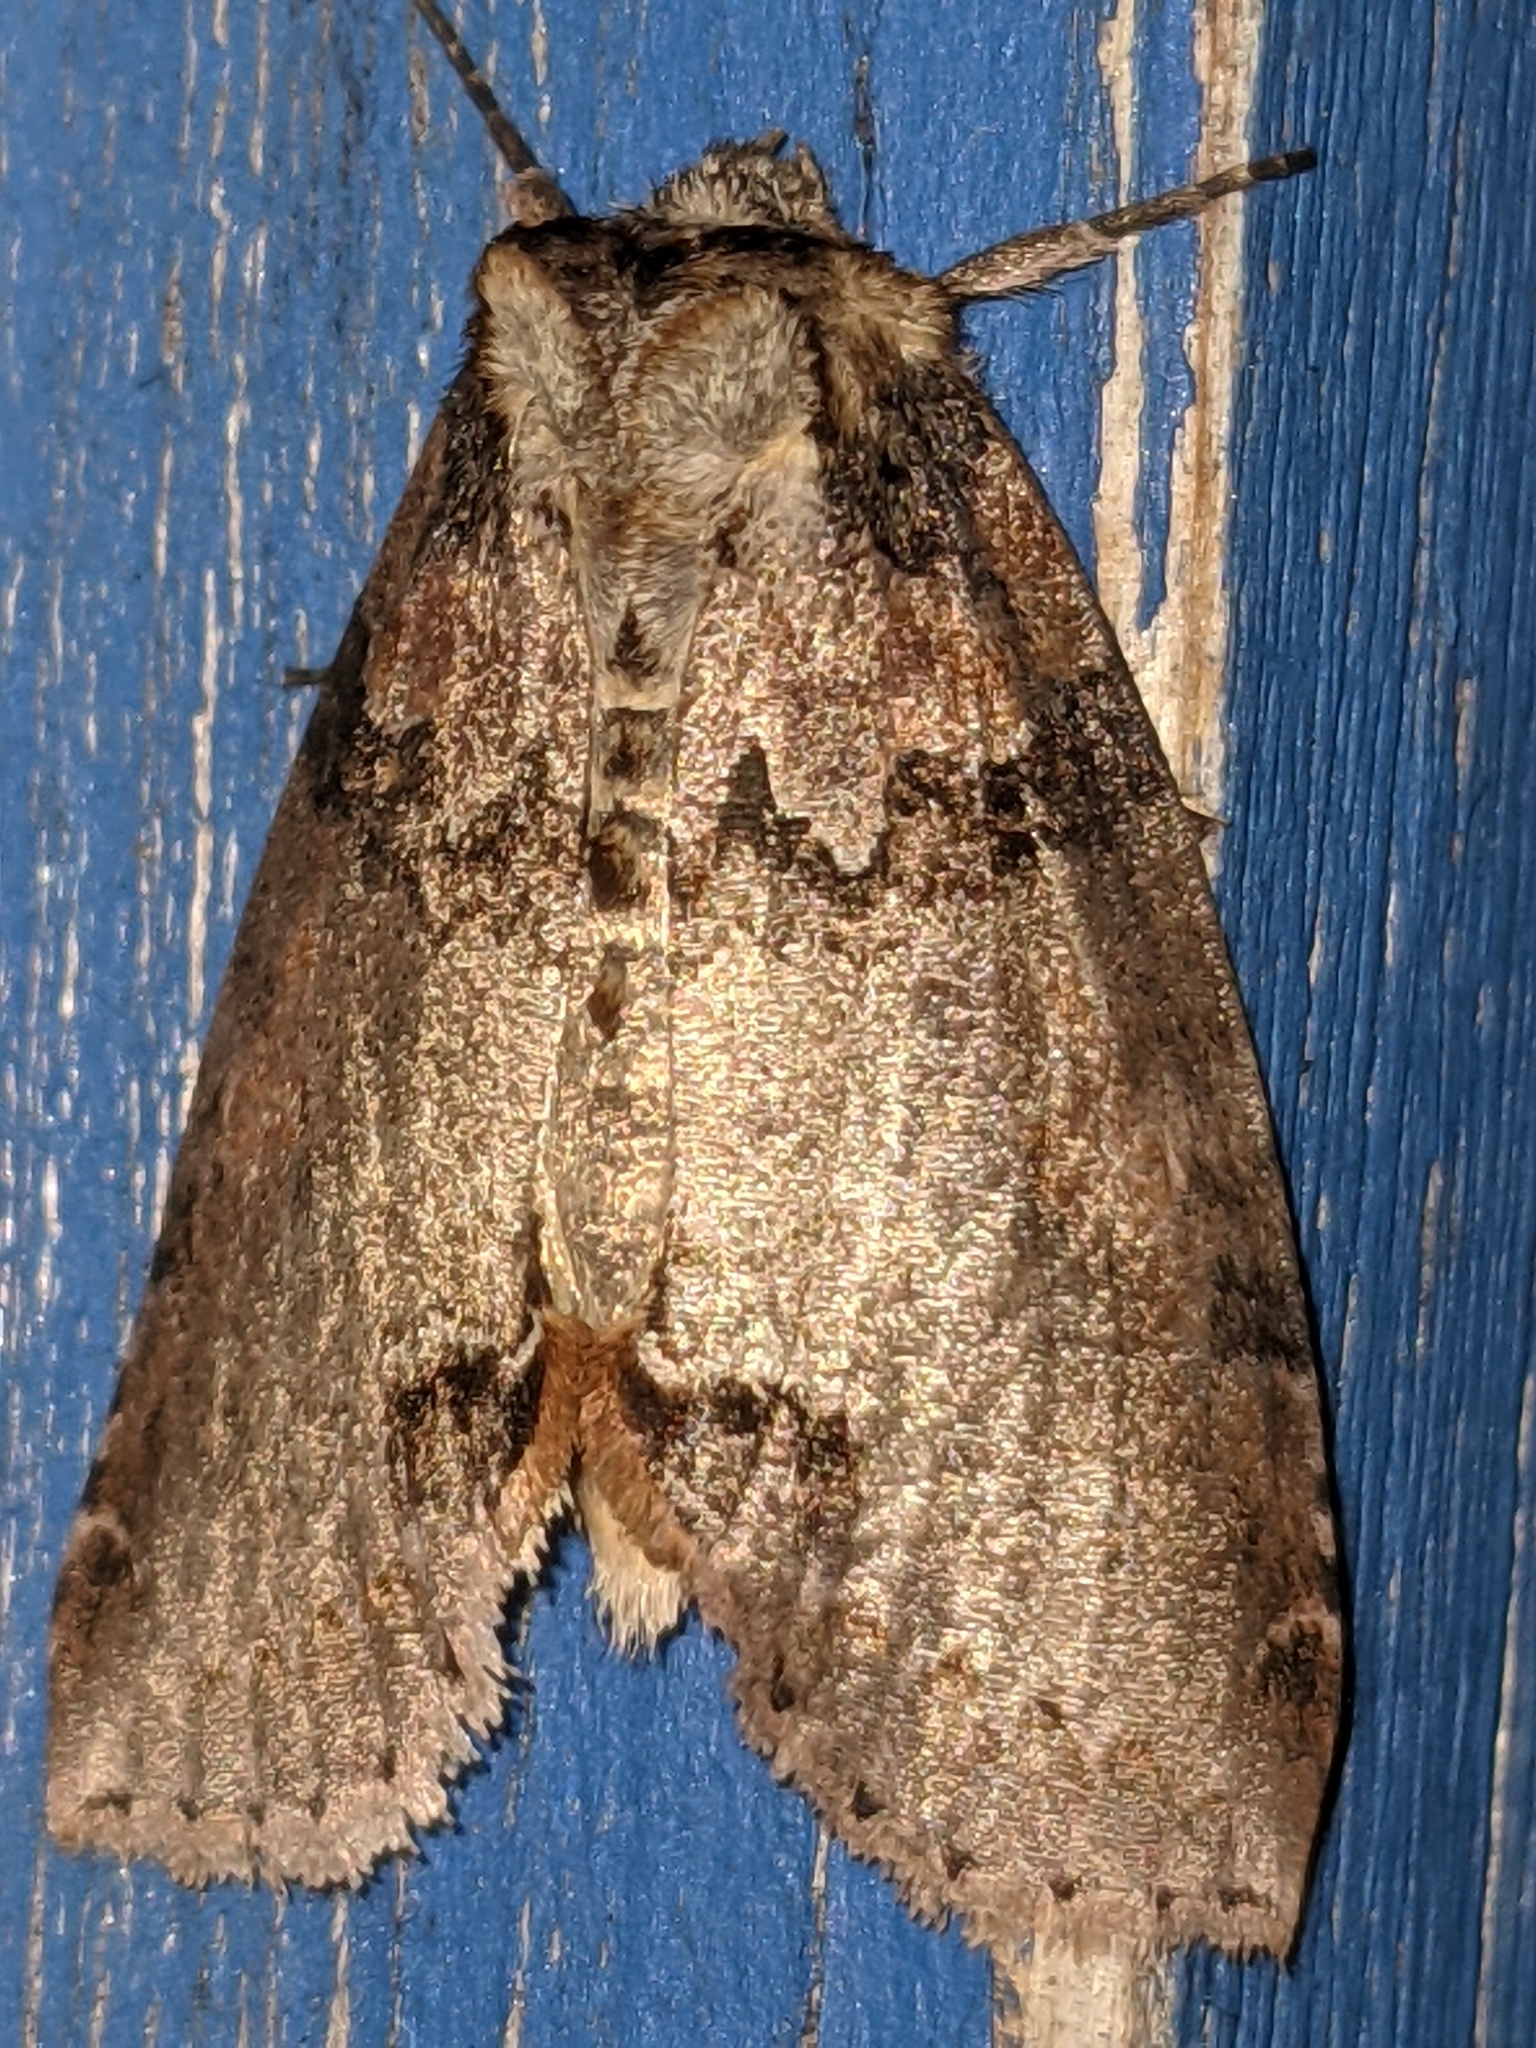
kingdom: Animalia
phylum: Arthropoda
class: Insecta
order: Lepidoptera
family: Drepanidae
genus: Pseudothyatira
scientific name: Pseudothyatira cymatophoroides
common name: Tufted thyatirid moth
